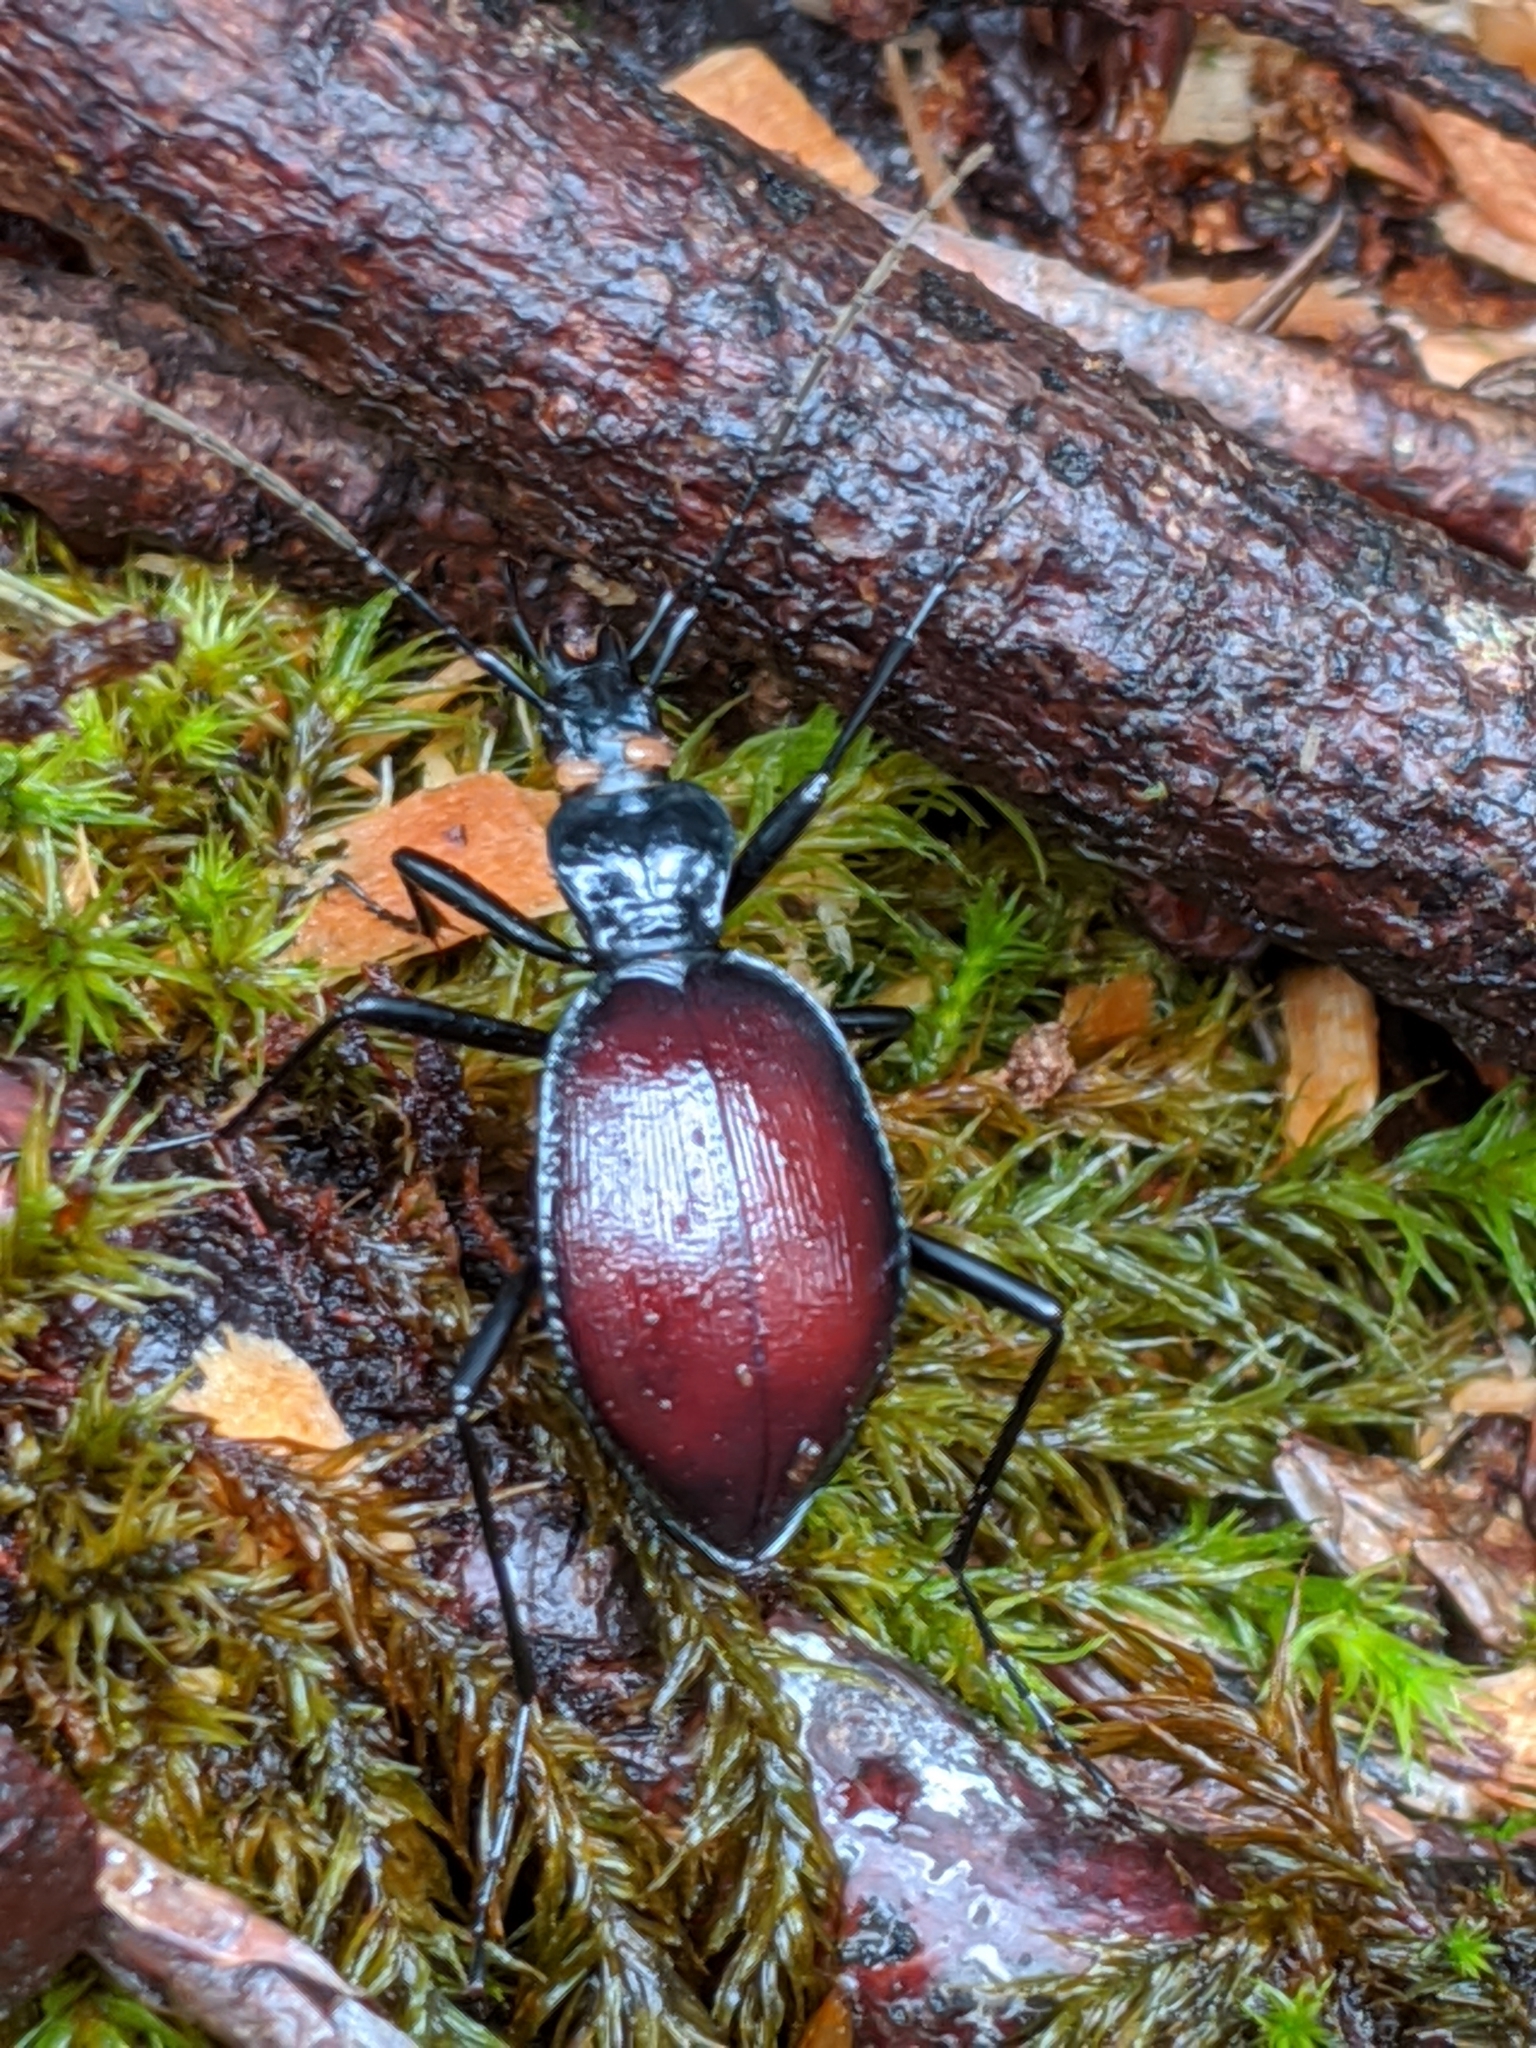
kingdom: Animalia
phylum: Arthropoda
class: Insecta
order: Coleoptera
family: Carabidae
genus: Scaphinotus
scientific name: Scaphinotus angusticollis
